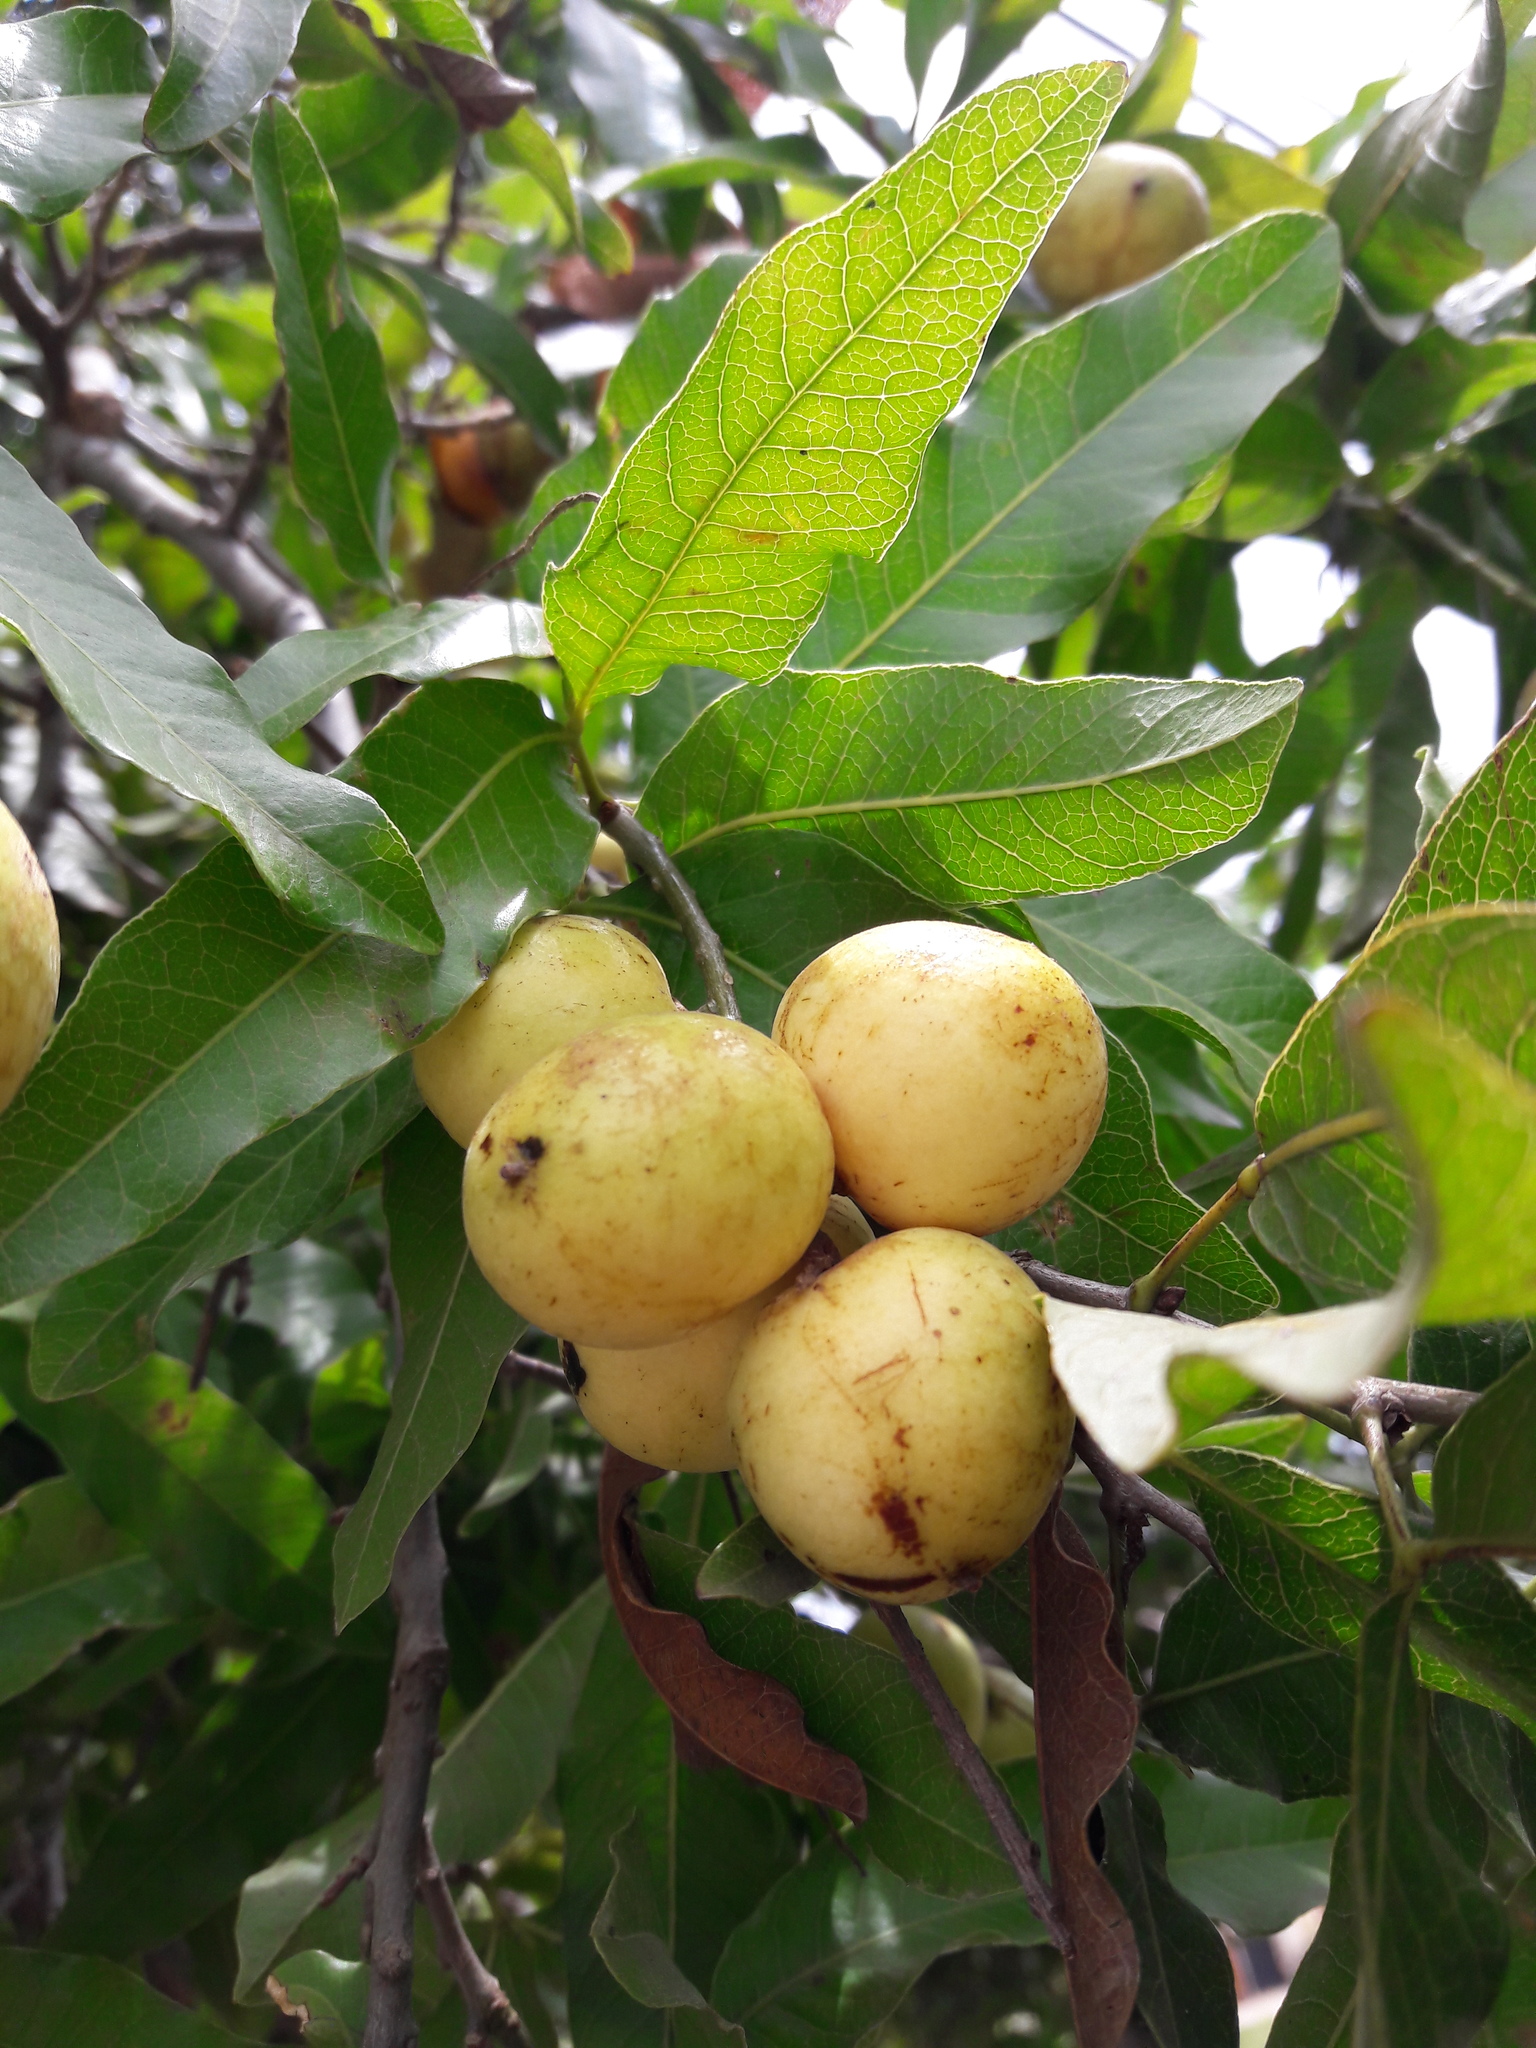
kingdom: Plantae
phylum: Tracheophyta
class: Magnoliopsida
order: Sapindales
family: Sapindaceae
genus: Melicoccus
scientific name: Melicoccus lepidopetala
